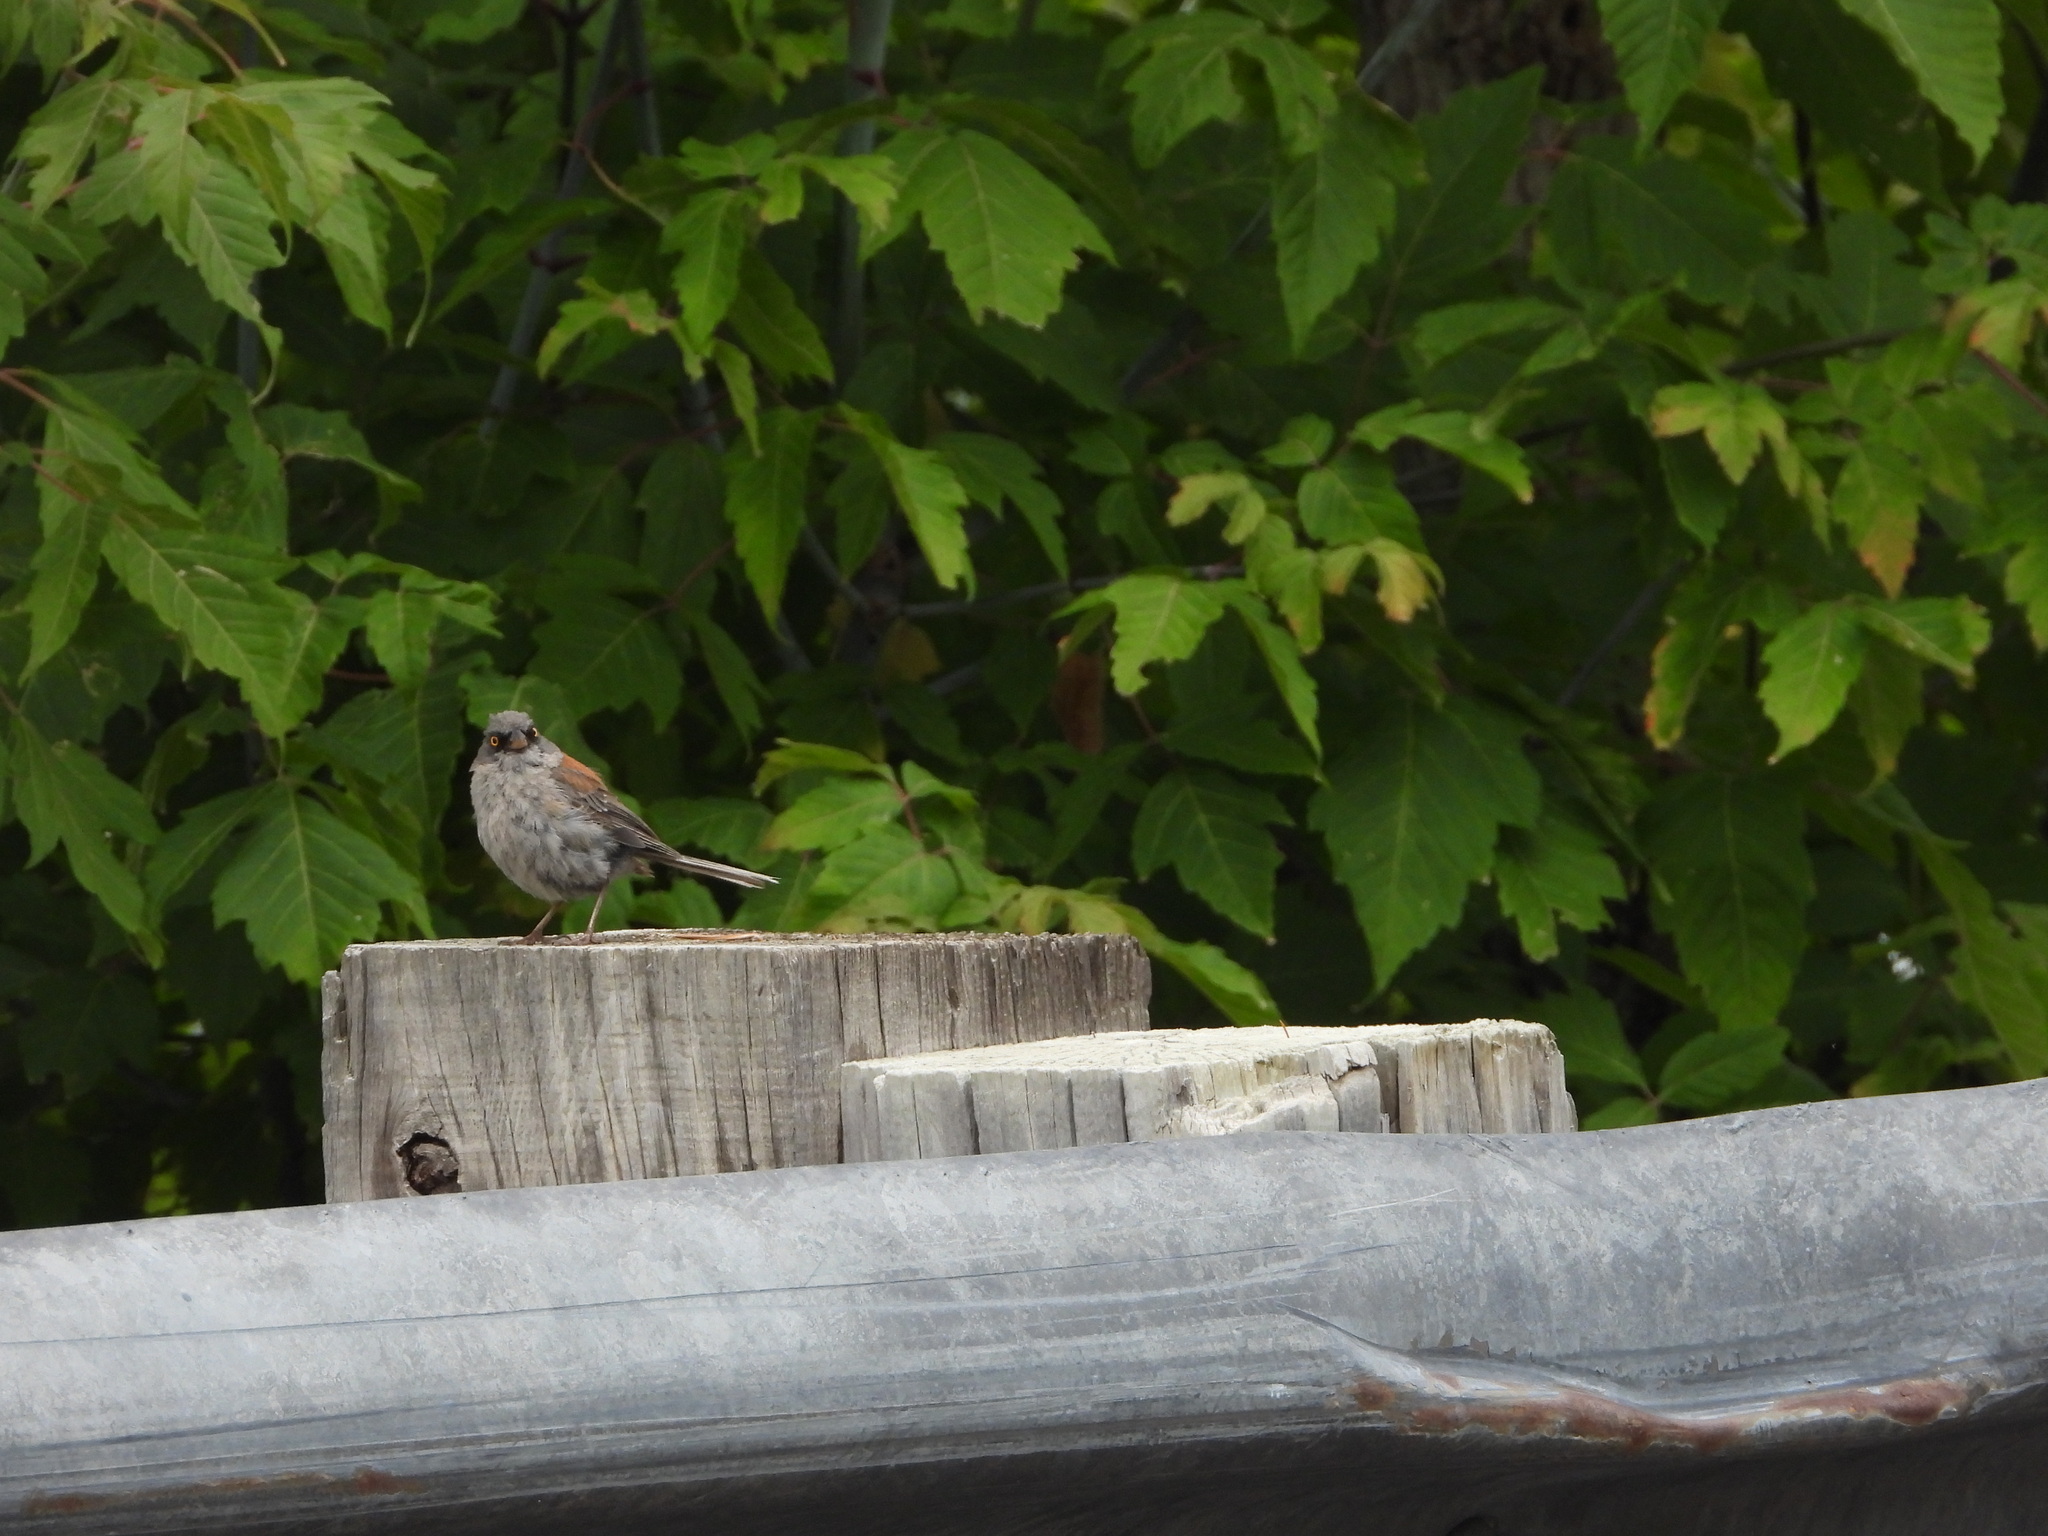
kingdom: Animalia
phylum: Chordata
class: Aves
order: Passeriformes
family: Passerellidae
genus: Junco
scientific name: Junco phaeonotus
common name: Yellow-eyed junco
